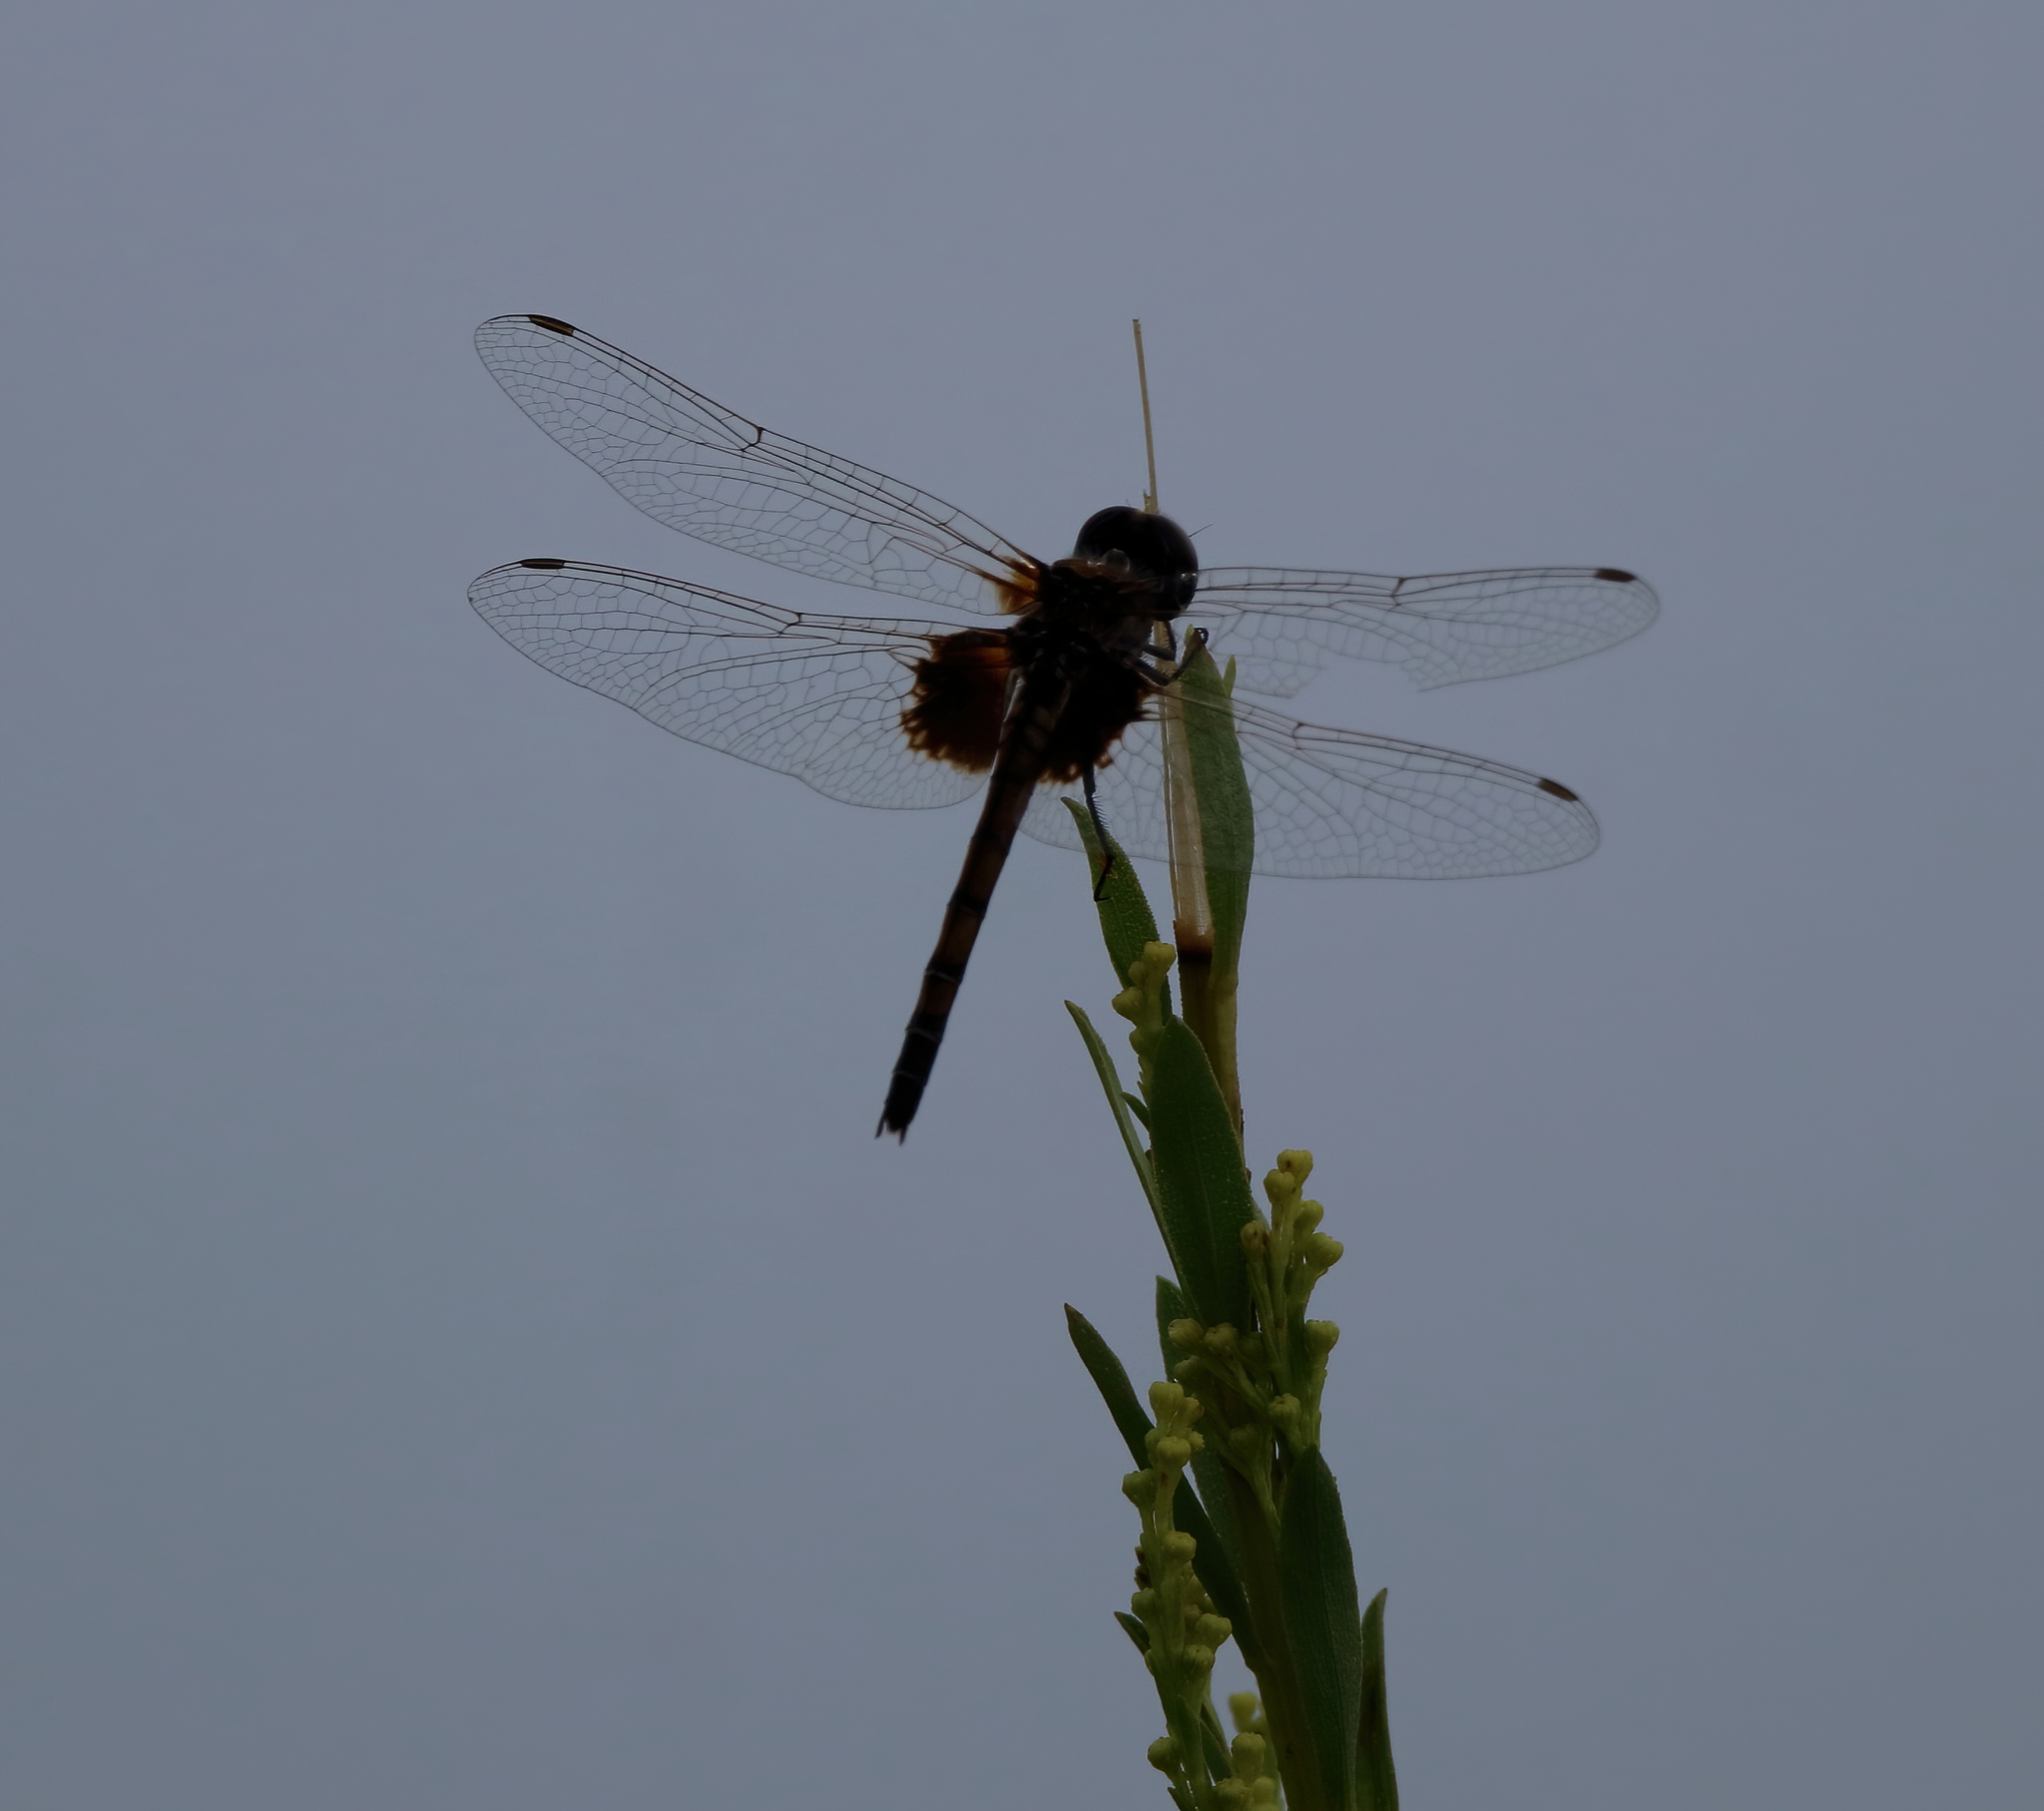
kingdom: Animalia
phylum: Arthropoda
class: Insecta
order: Odonata
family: Libellulidae
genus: Macrodiplax
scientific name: Macrodiplax balteata
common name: Marl pennant
